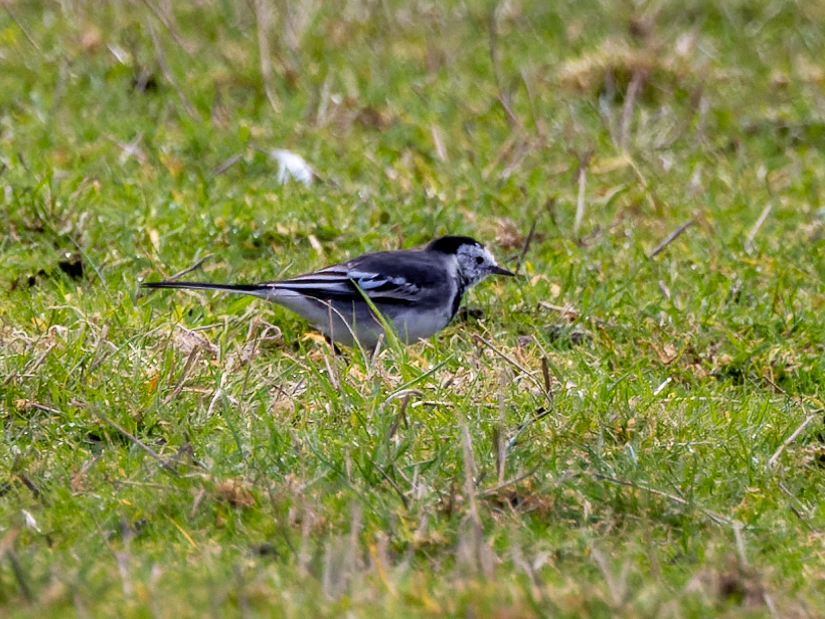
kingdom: Animalia
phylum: Chordata
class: Aves
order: Passeriformes
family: Motacillidae
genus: Motacilla
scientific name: Motacilla alba
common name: White wagtail
